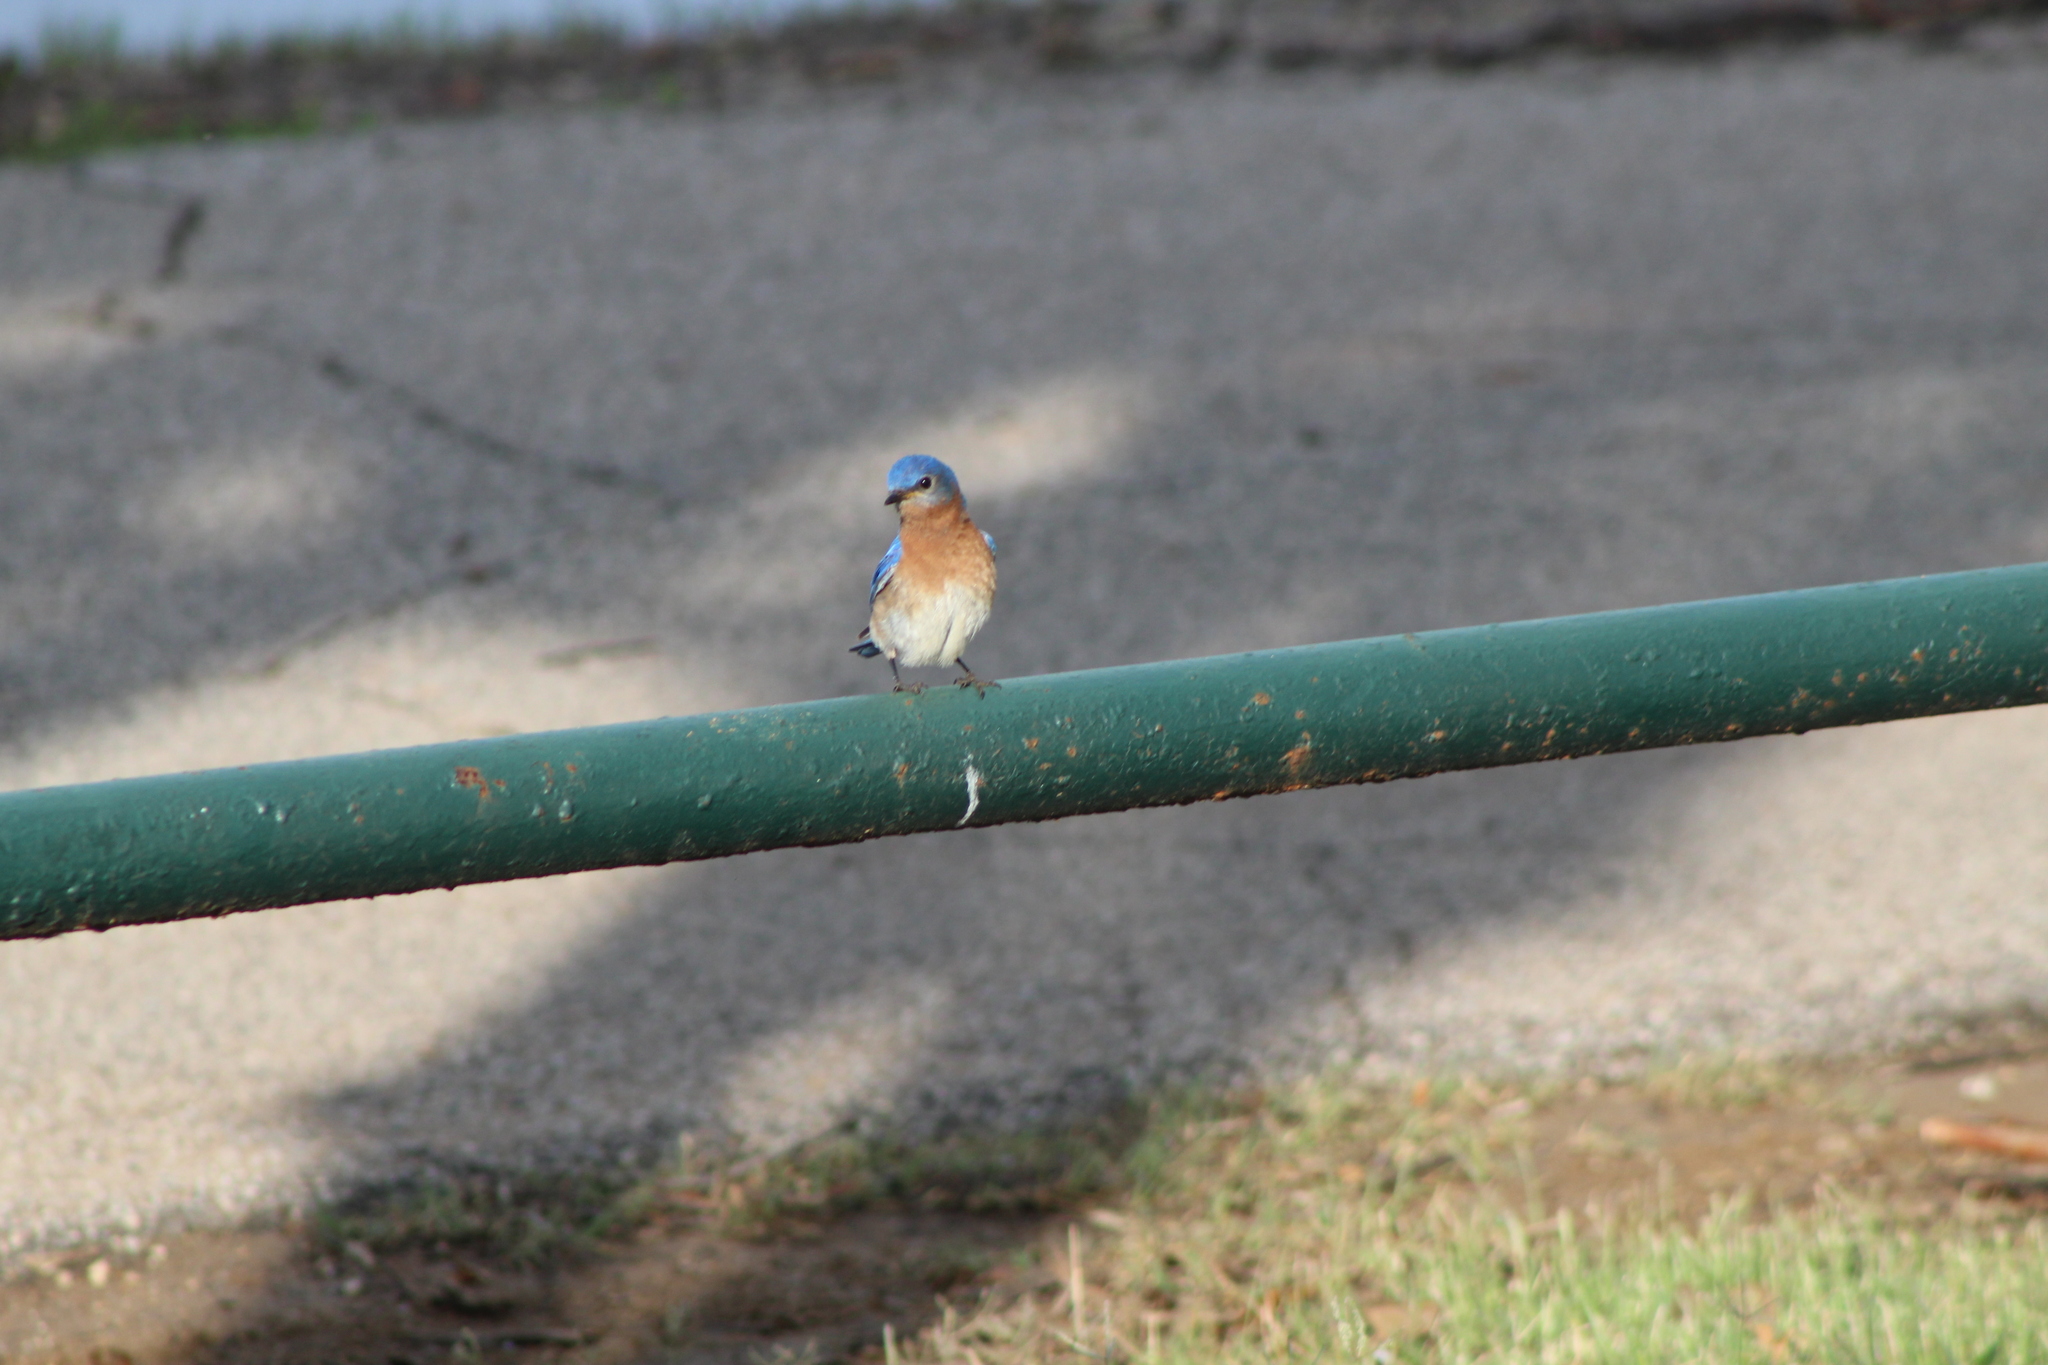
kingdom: Animalia
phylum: Chordata
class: Aves
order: Passeriformes
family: Turdidae
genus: Sialia
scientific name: Sialia sialis
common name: Eastern bluebird
